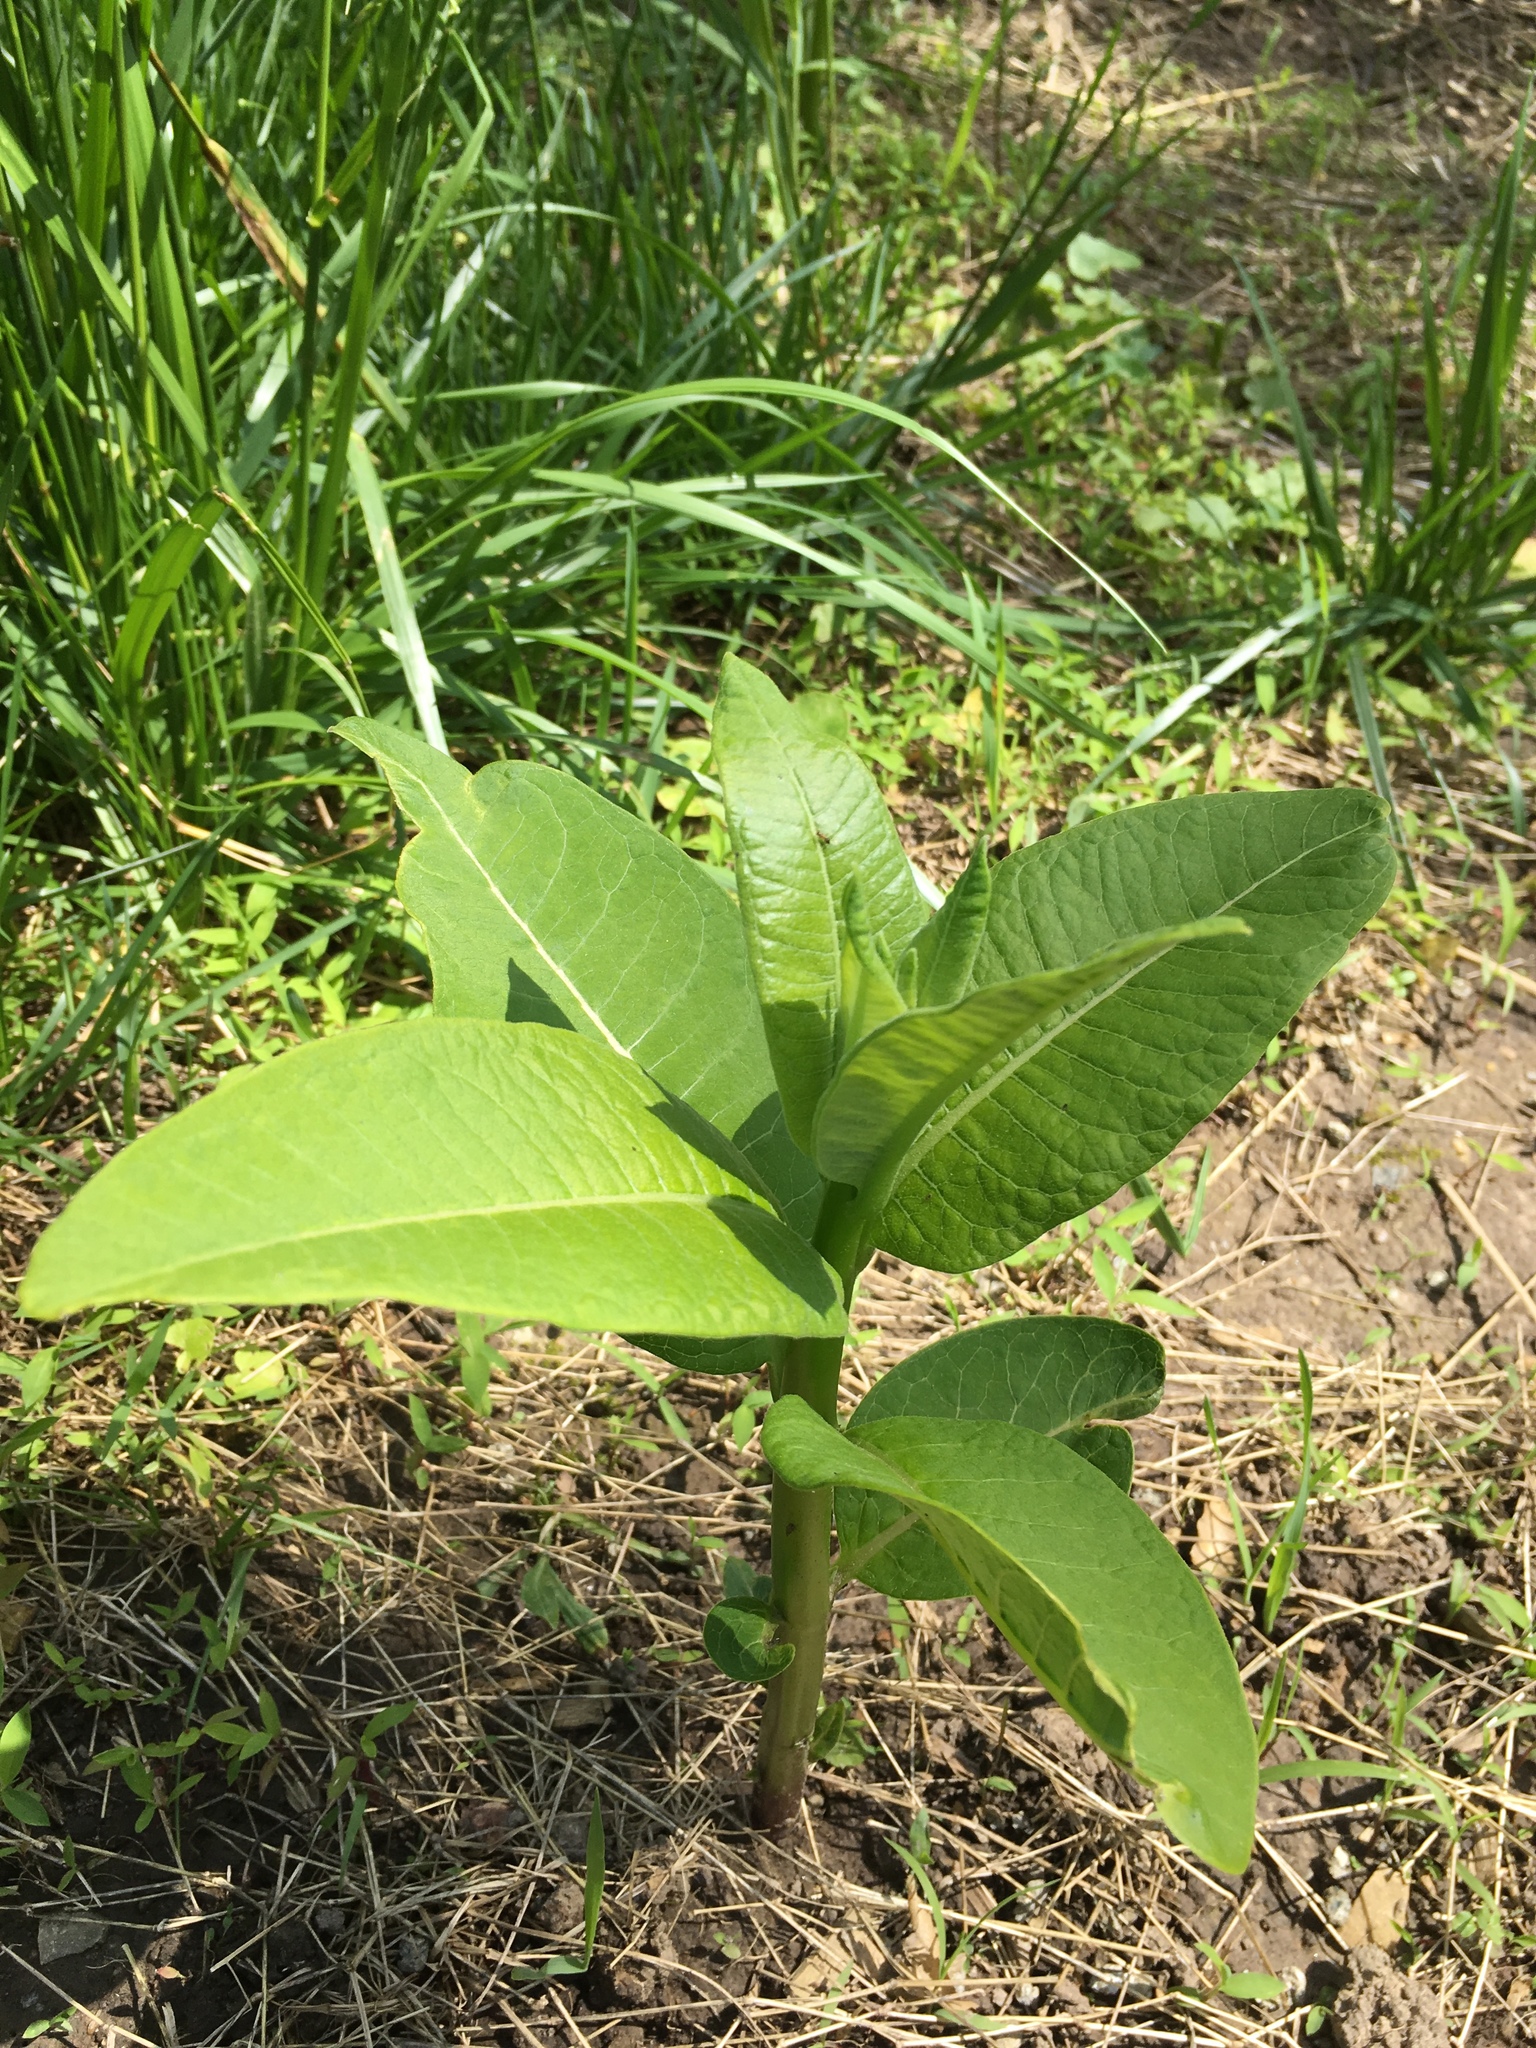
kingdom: Plantae
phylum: Tracheophyta
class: Magnoliopsida
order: Gentianales
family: Apocynaceae
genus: Asclepias
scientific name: Asclepias syriaca
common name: Common milkweed
